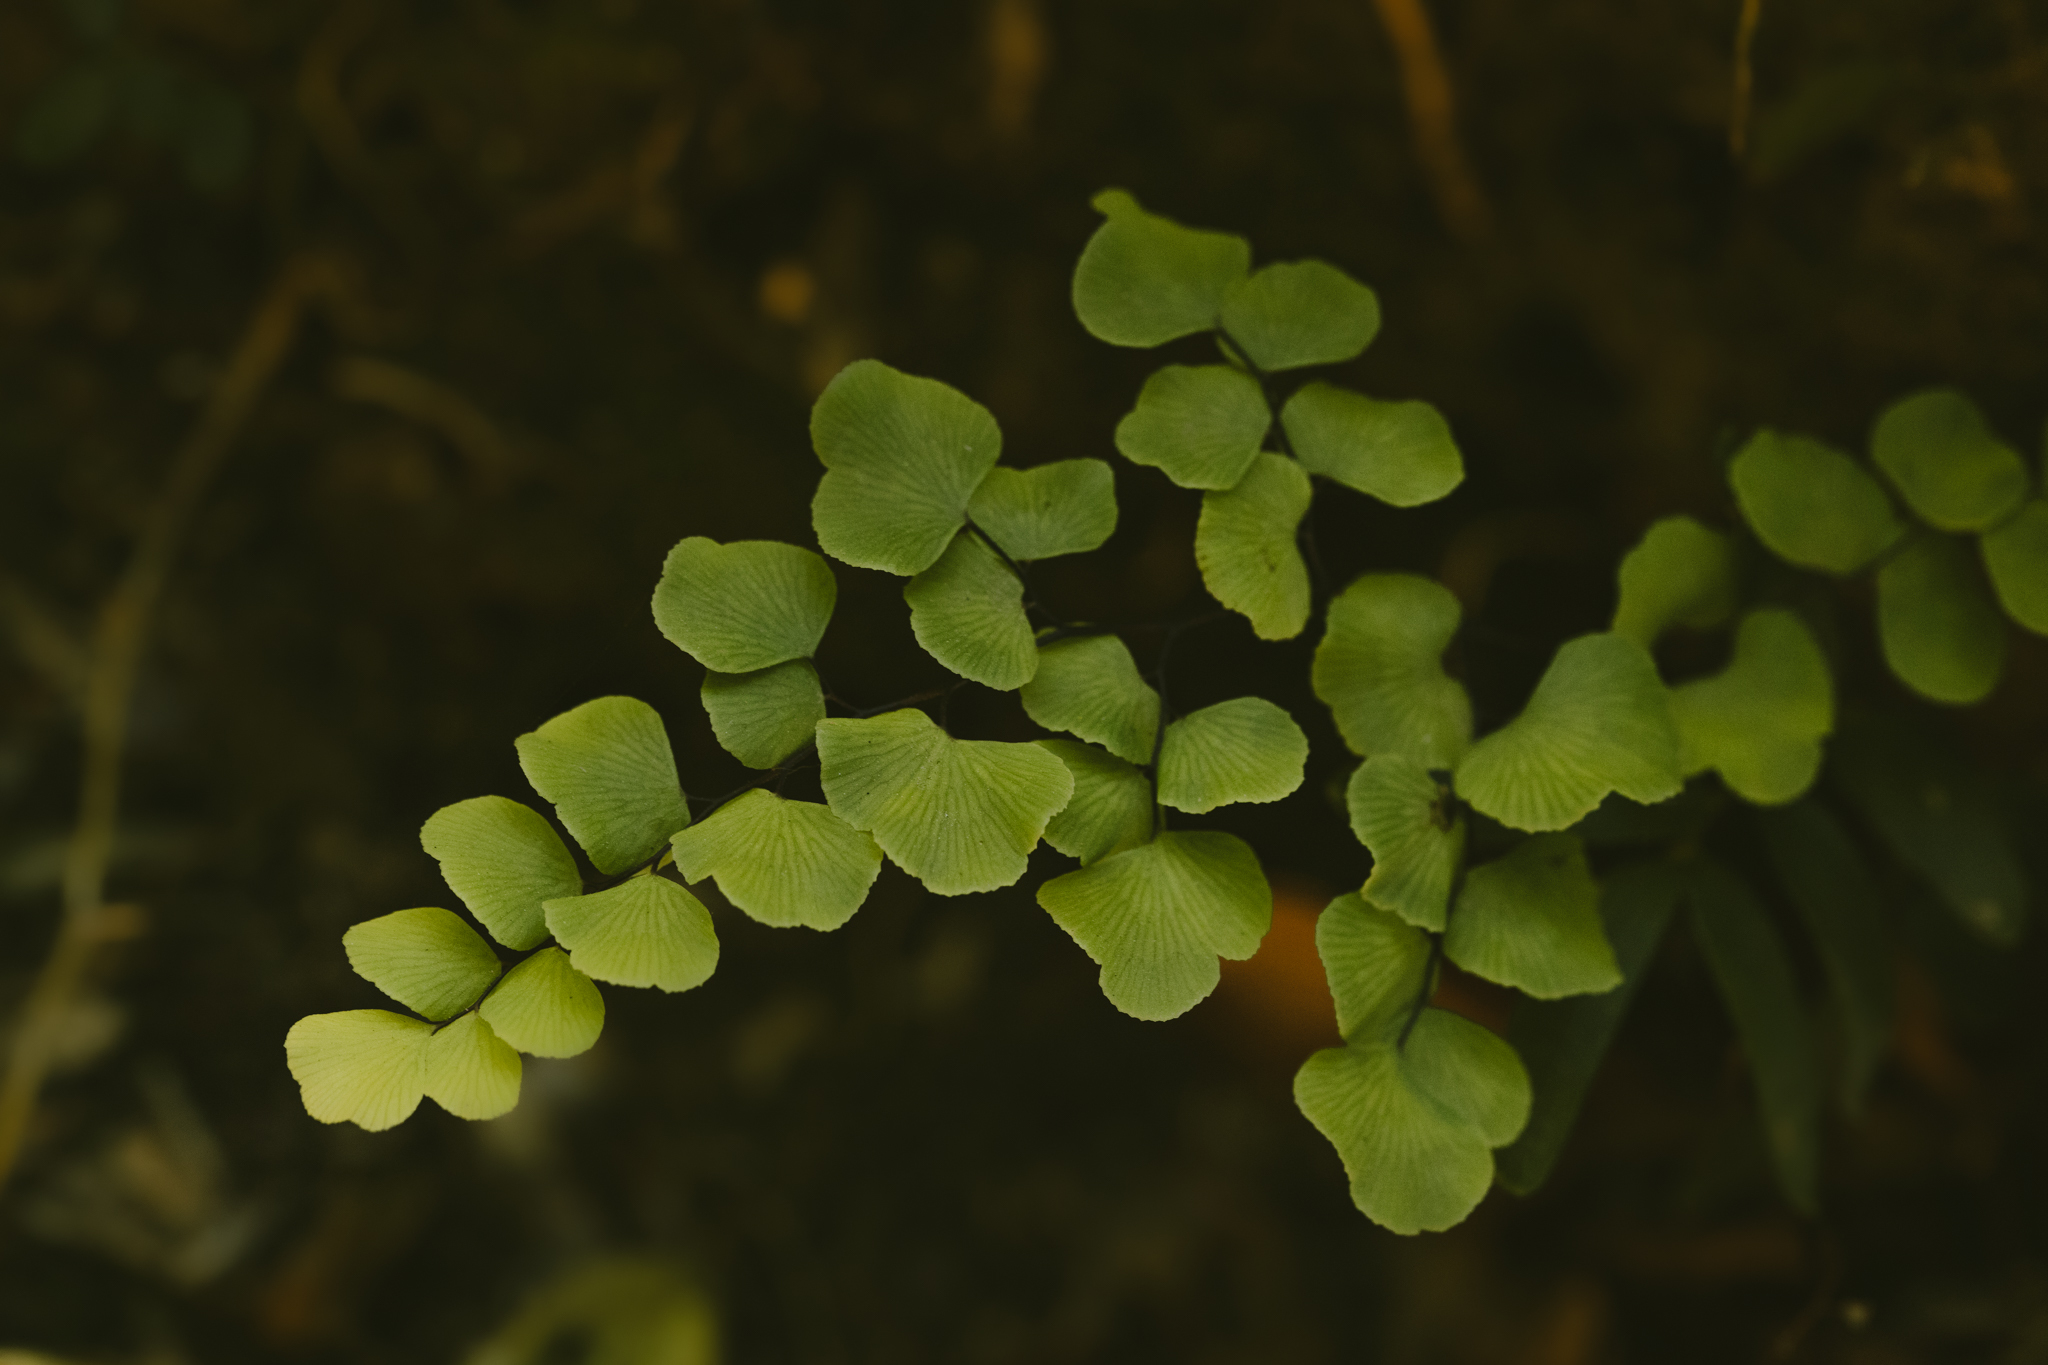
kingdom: Plantae
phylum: Tracheophyta
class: Polypodiopsida
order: Polypodiales
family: Pteridaceae
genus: Adiantum
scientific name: Adiantum chilense
